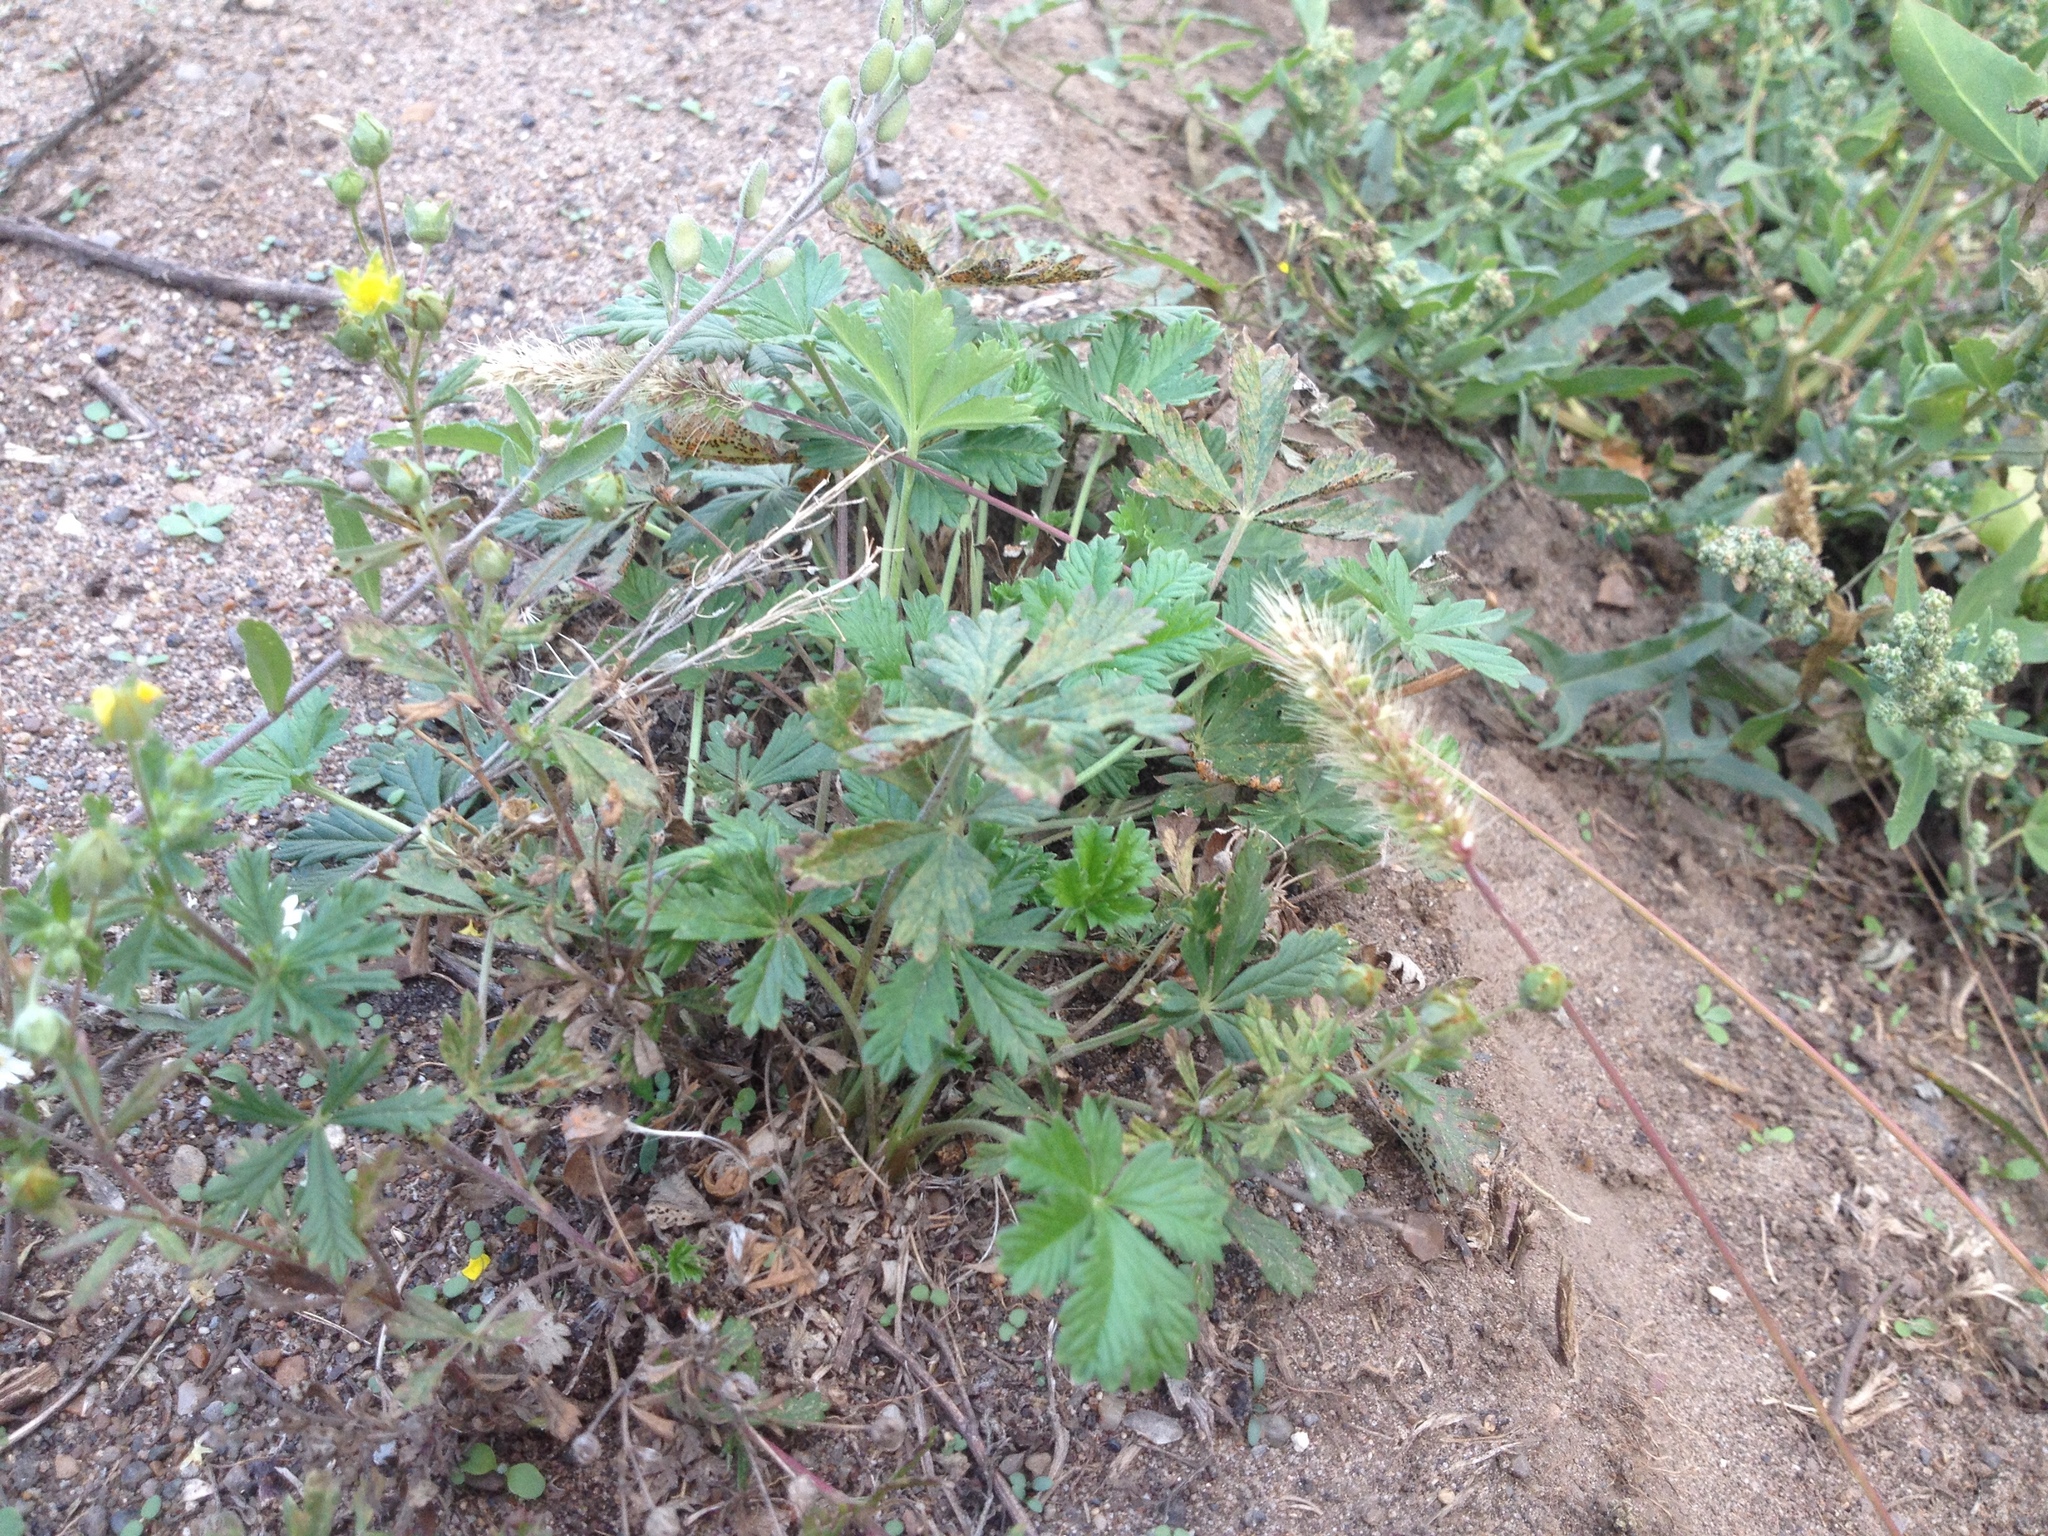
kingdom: Plantae
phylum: Tracheophyta
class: Magnoliopsida
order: Rosales
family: Rosaceae
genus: Potentilla
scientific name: Potentilla argentea
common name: Hoary cinquefoil
